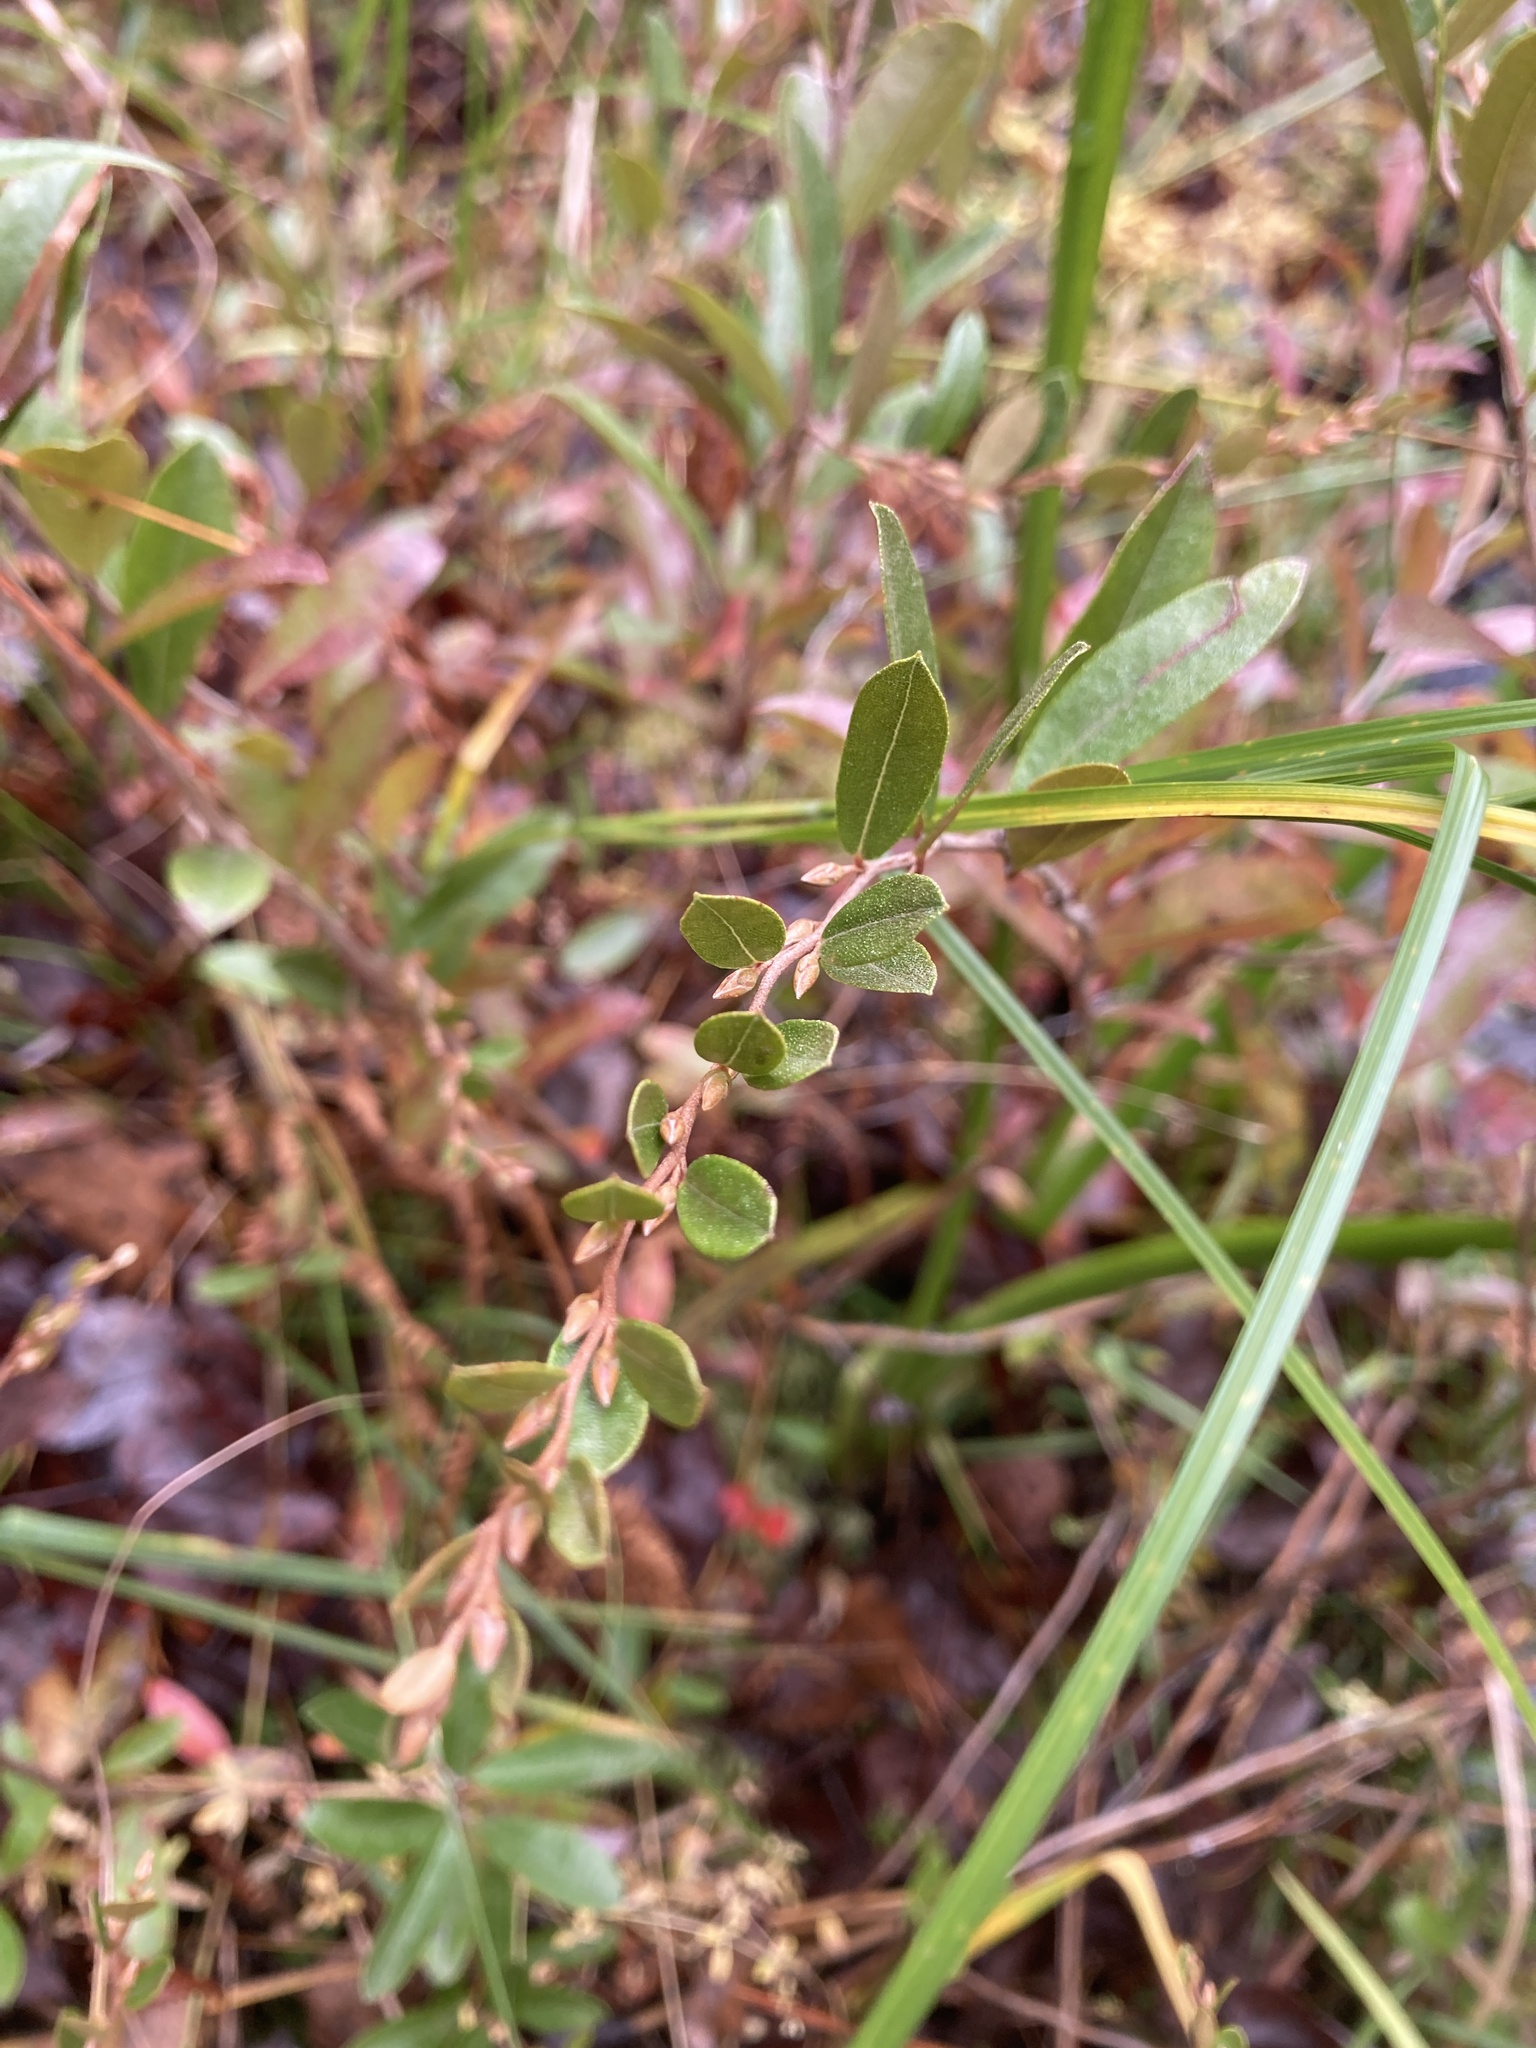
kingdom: Plantae
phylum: Tracheophyta
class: Magnoliopsida
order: Ericales
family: Ericaceae
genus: Chamaedaphne
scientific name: Chamaedaphne calyculata
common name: Leatherleaf
